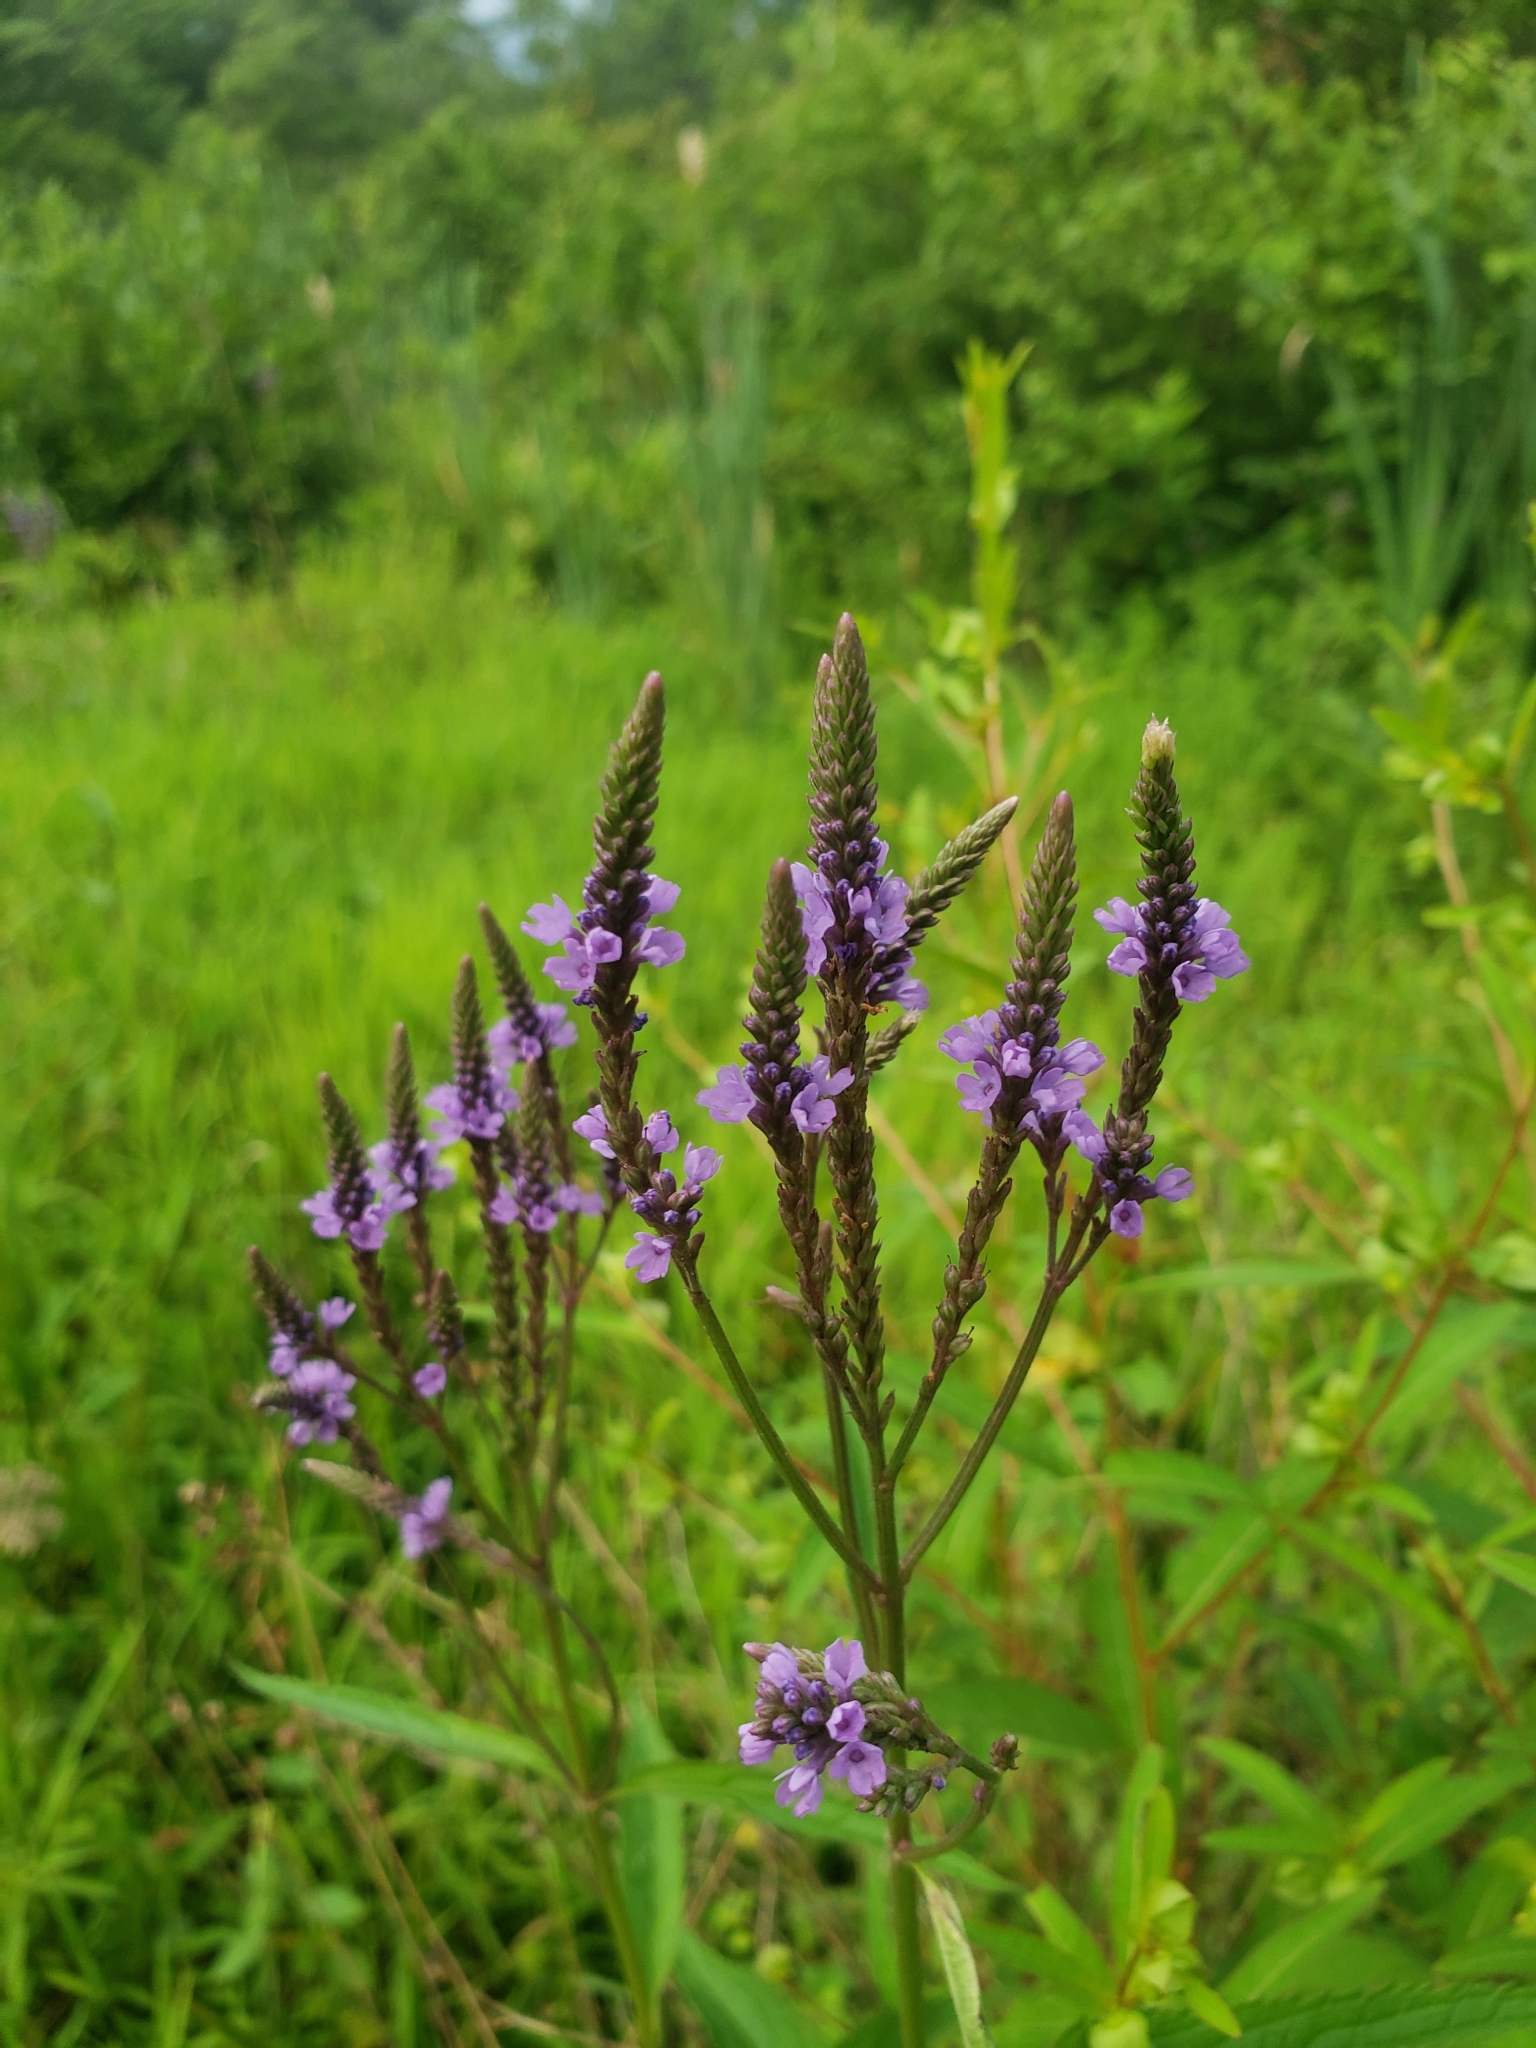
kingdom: Plantae
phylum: Tracheophyta
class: Magnoliopsida
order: Lamiales
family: Verbenaceae
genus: Verbena
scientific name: Verbena hastata
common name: American blue vervain
